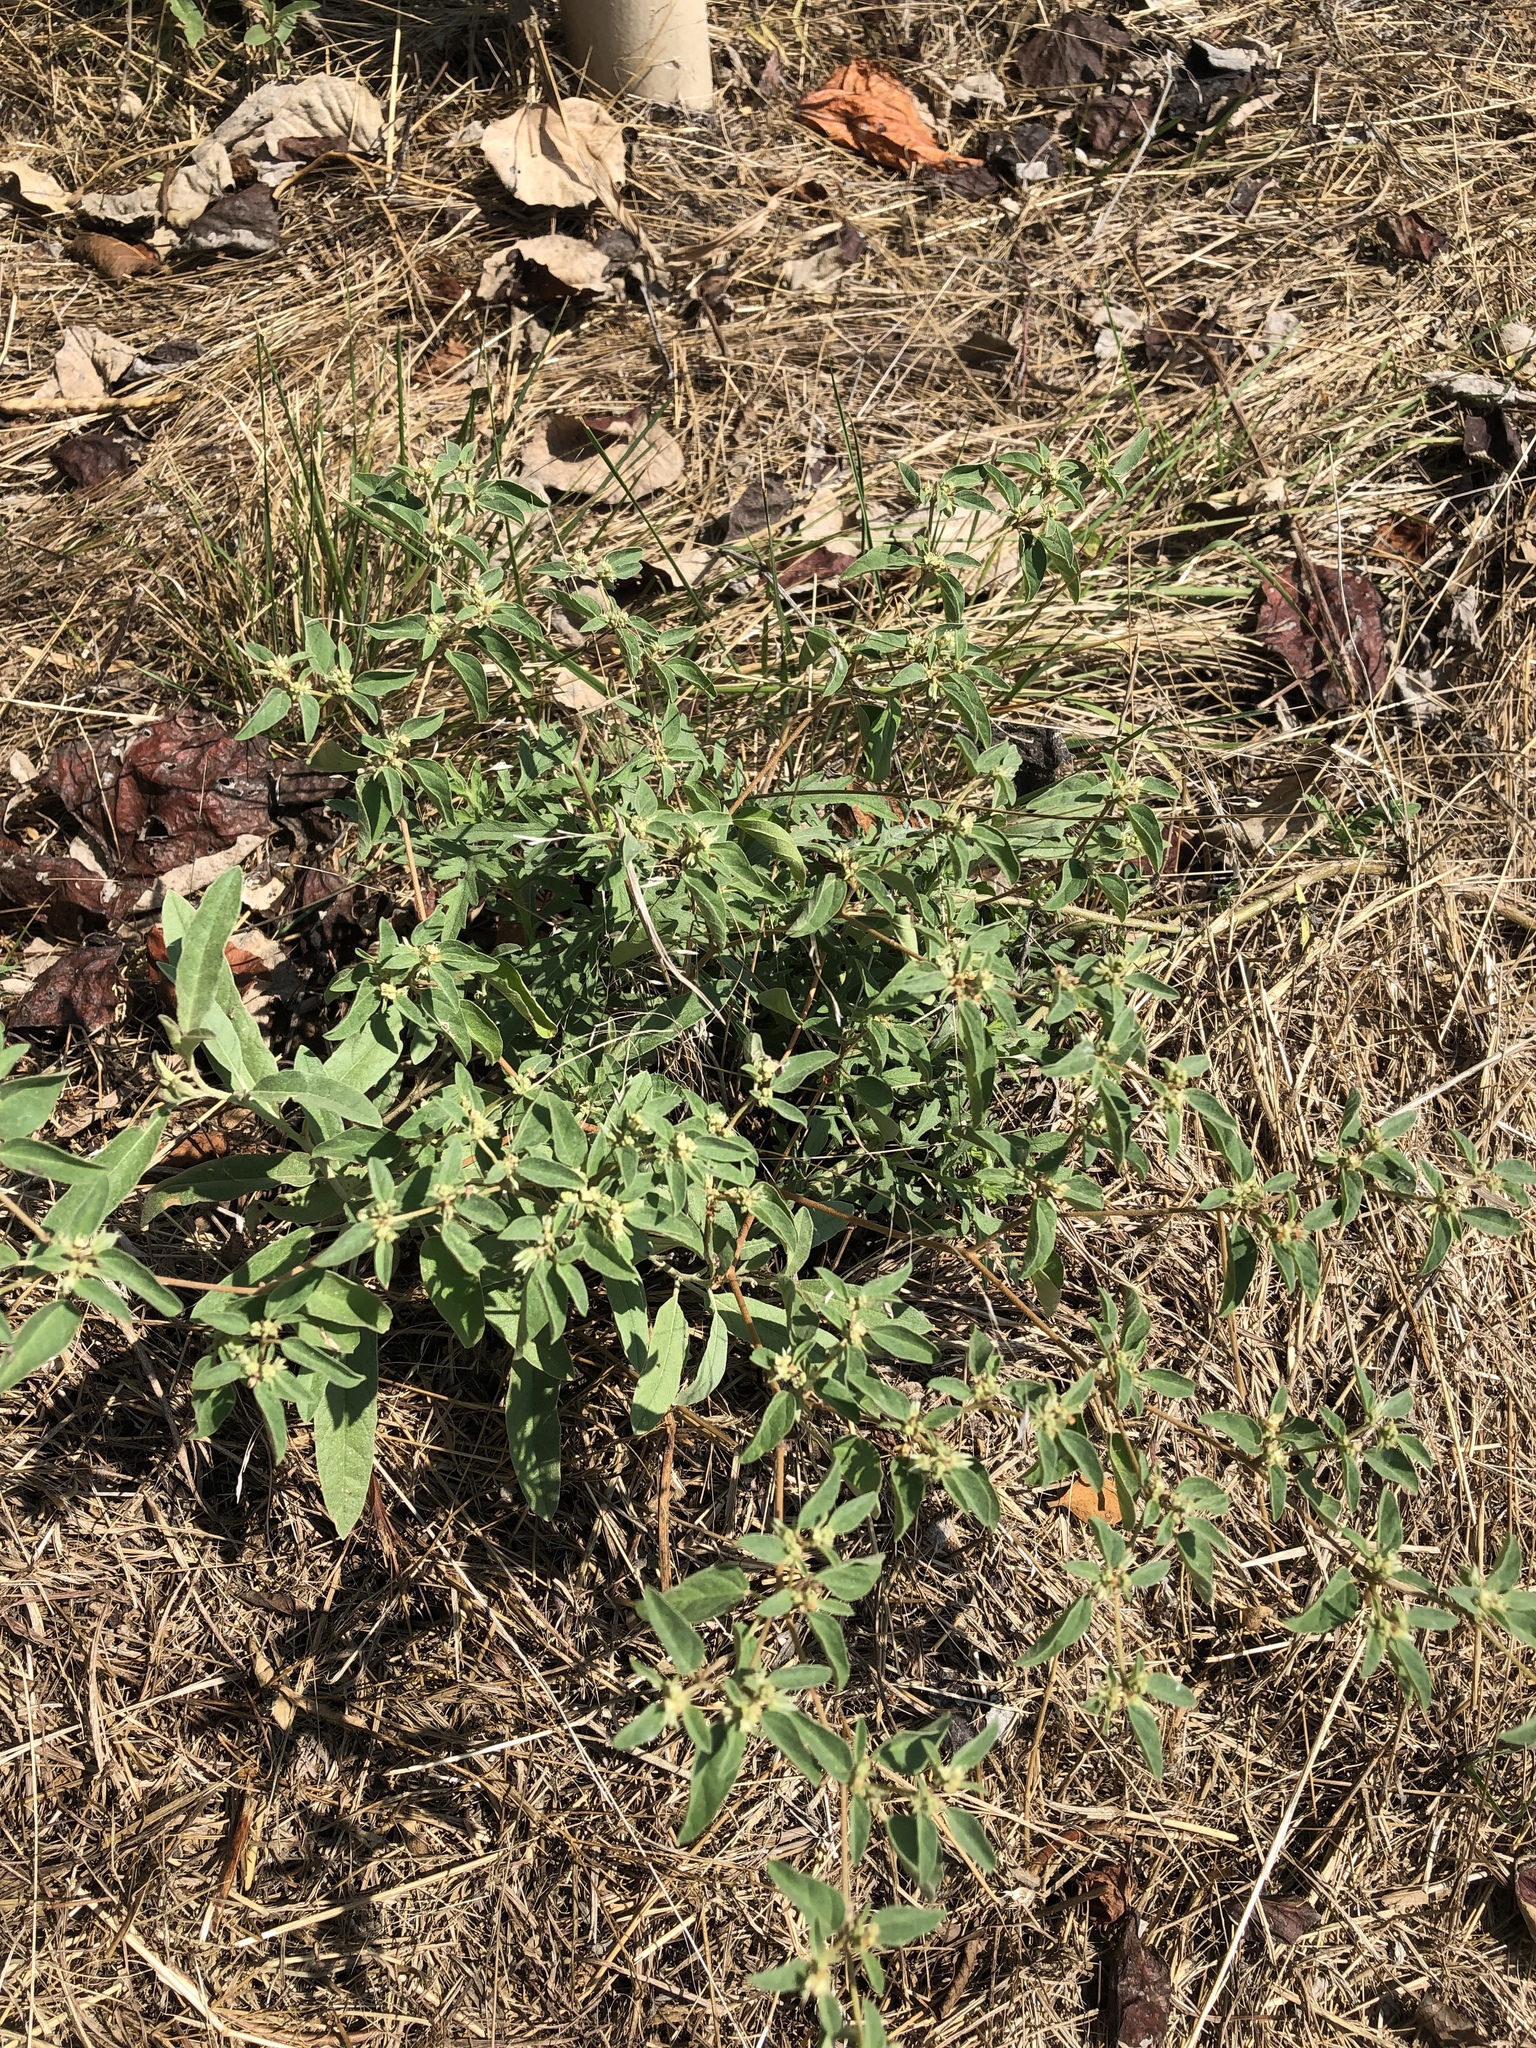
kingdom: Plantae
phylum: Tracheophyta
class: Magnoliopsida
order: Malpighiales
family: Euphorbiaceae
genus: Croton
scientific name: Croton monanthogynus
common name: One-seed croton
